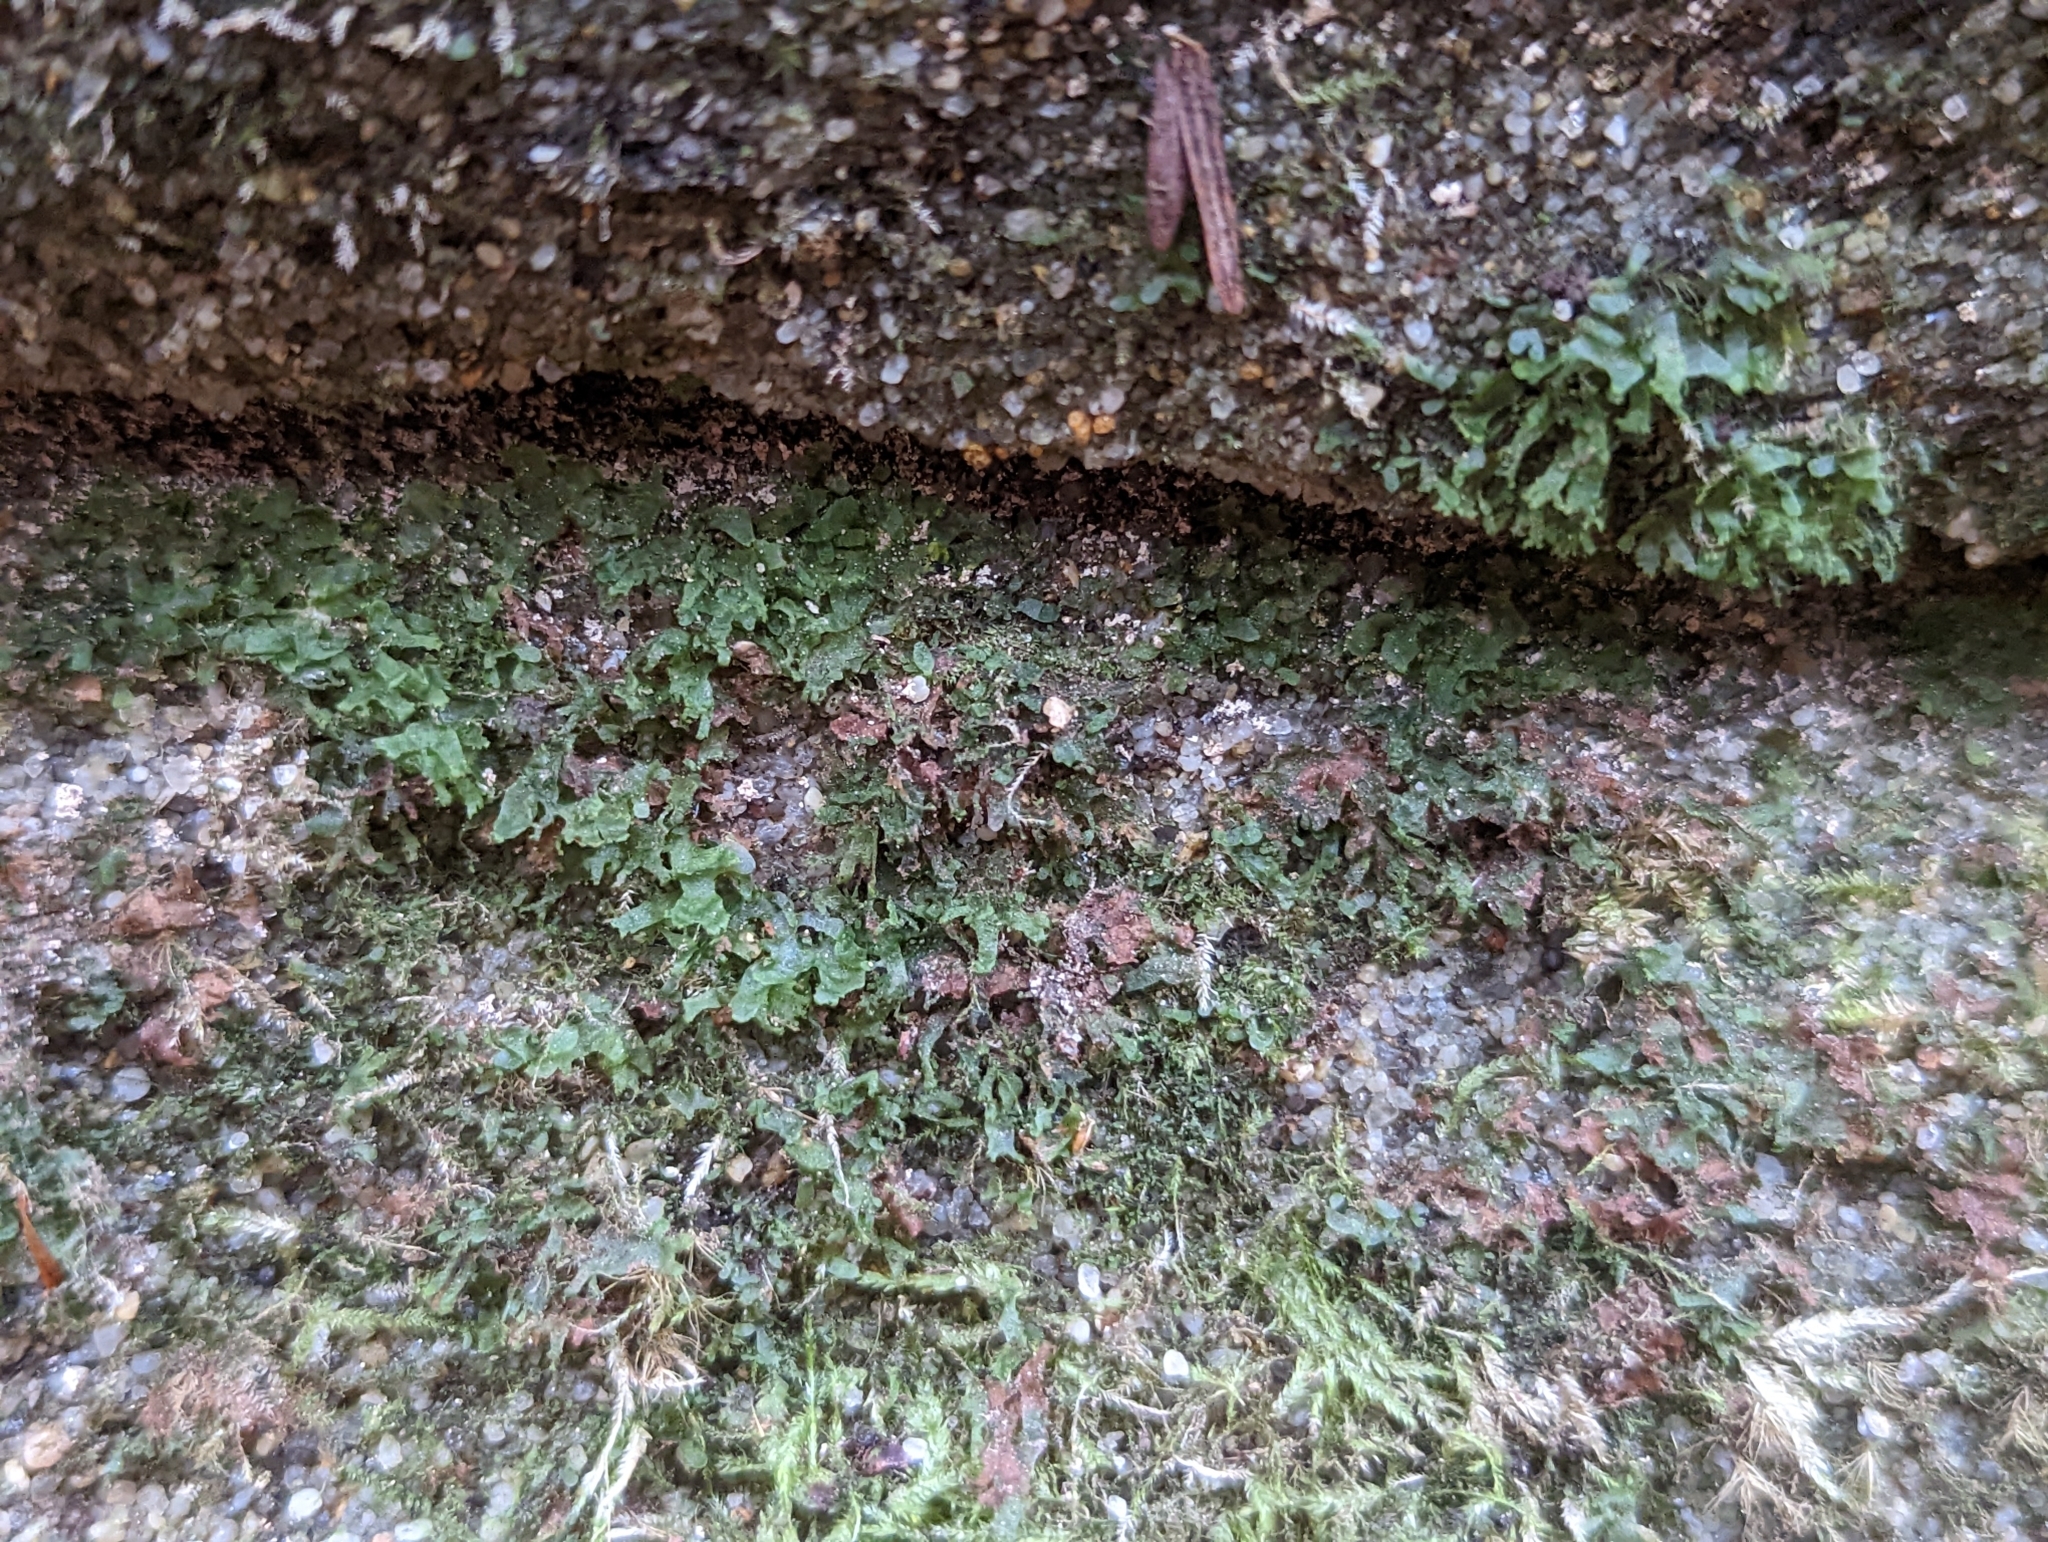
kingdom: Plantae
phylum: Tracheophyta
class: Polypodiopsida
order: Polypodiales
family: Pteridaceae
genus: Vittaria
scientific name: Vittaria appalachiana
